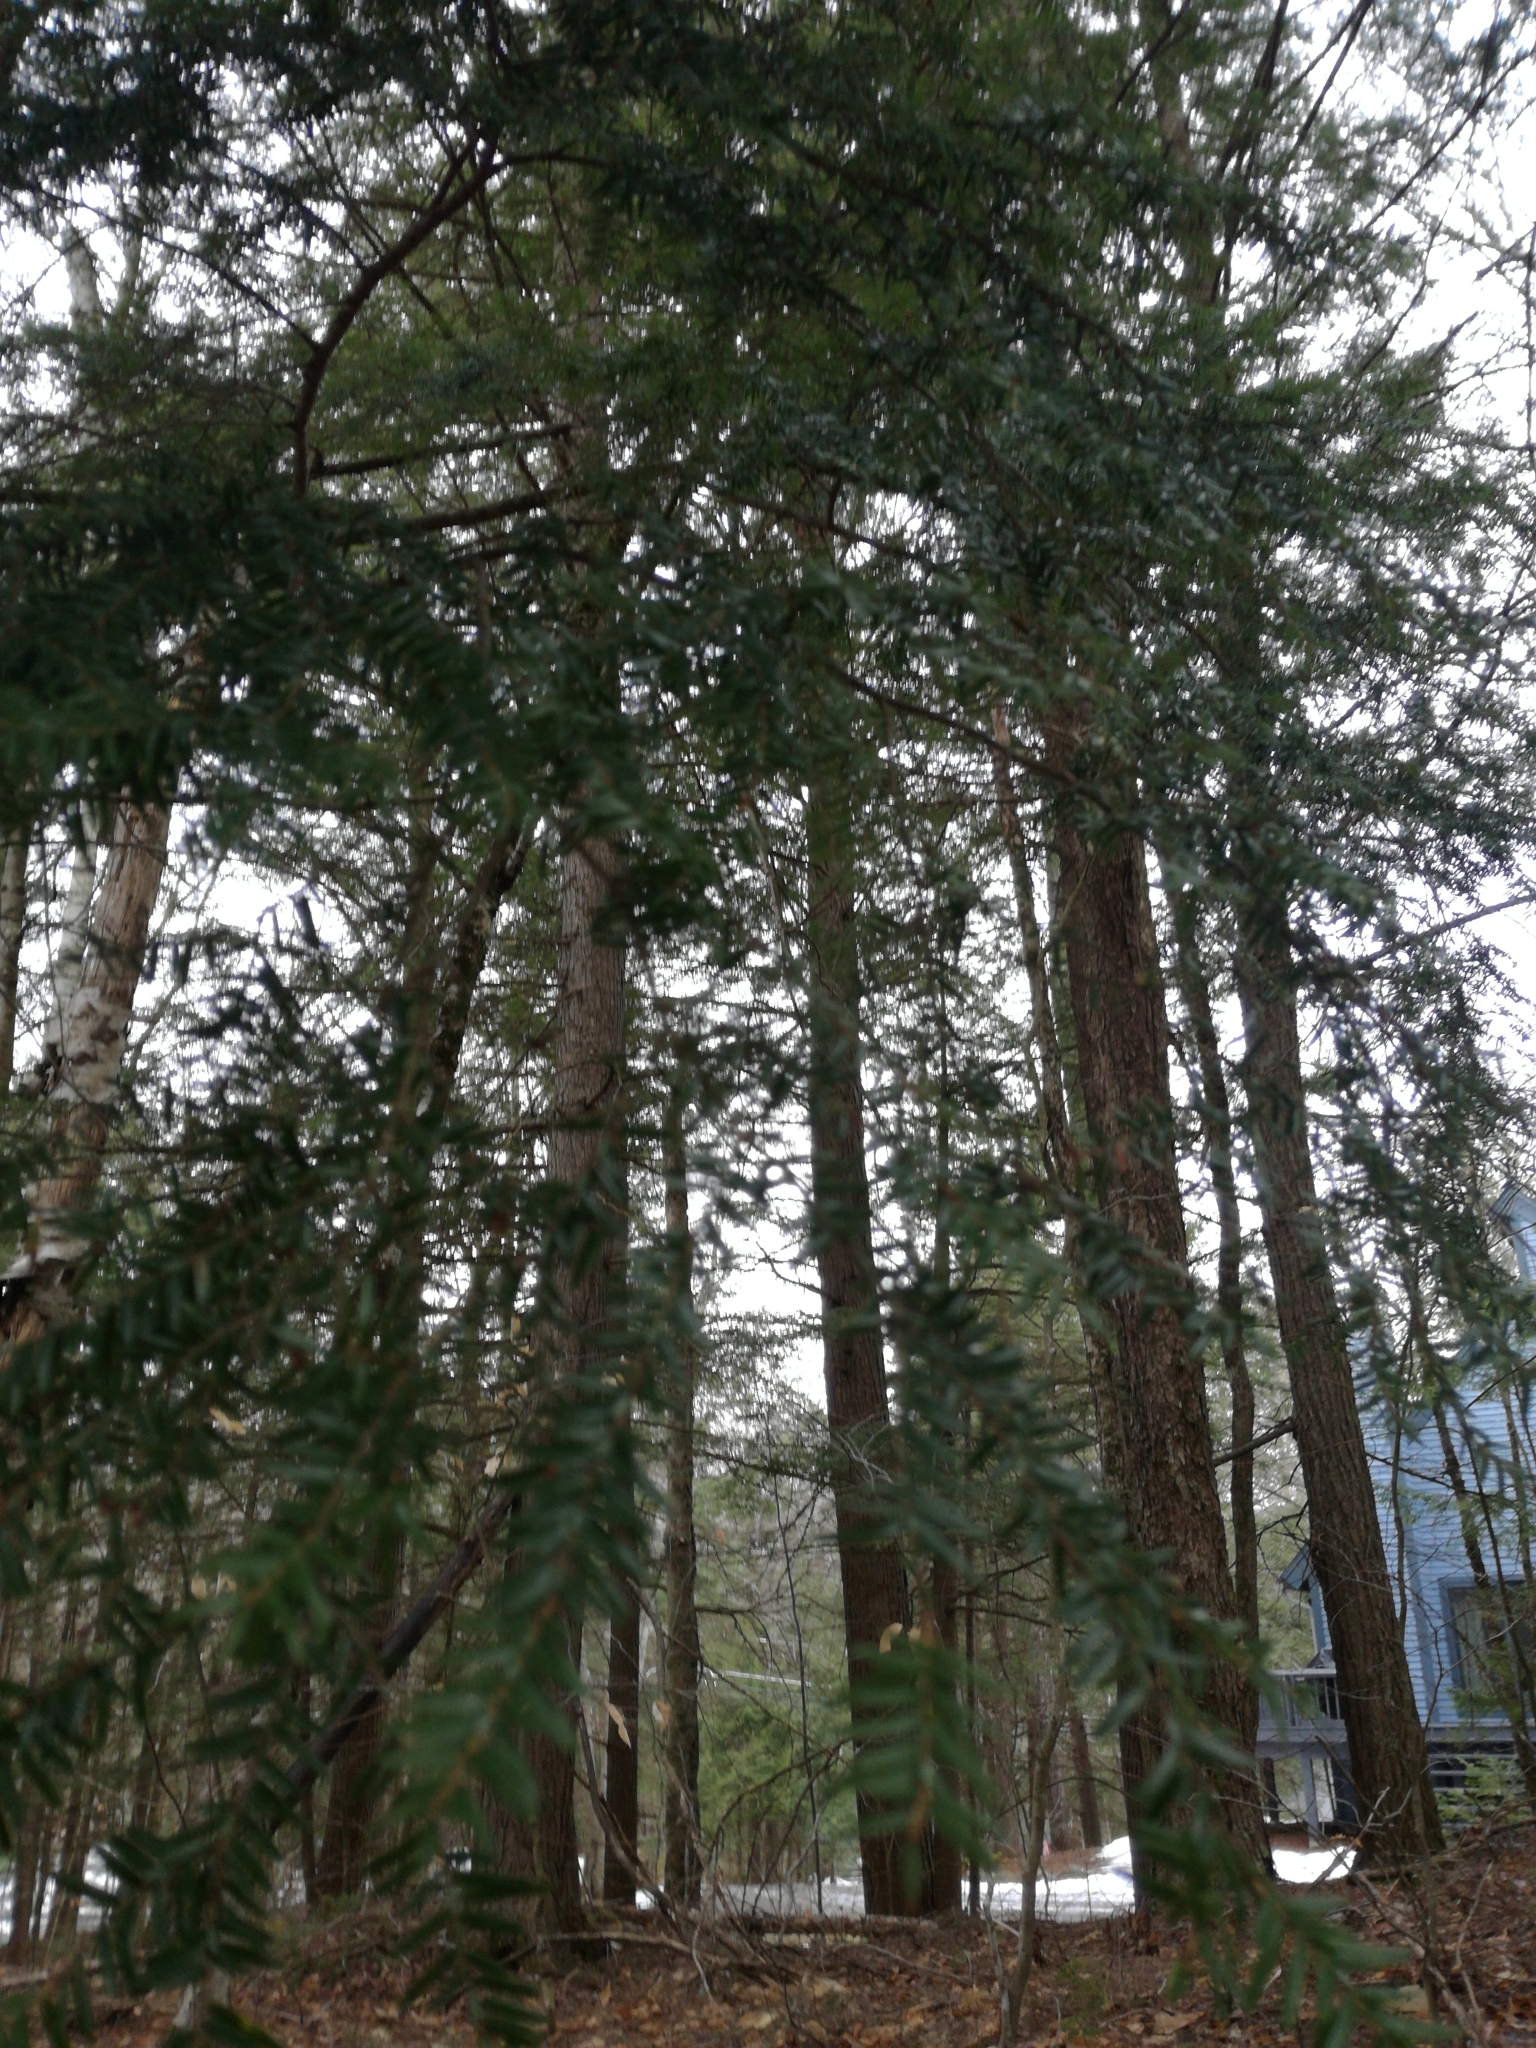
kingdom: Plantae
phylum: Tracheophyta
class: Pinopsida
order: Pinales
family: Pinaceae
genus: Tsuga
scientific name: Tsuga canadensis
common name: Eastern hemlock
